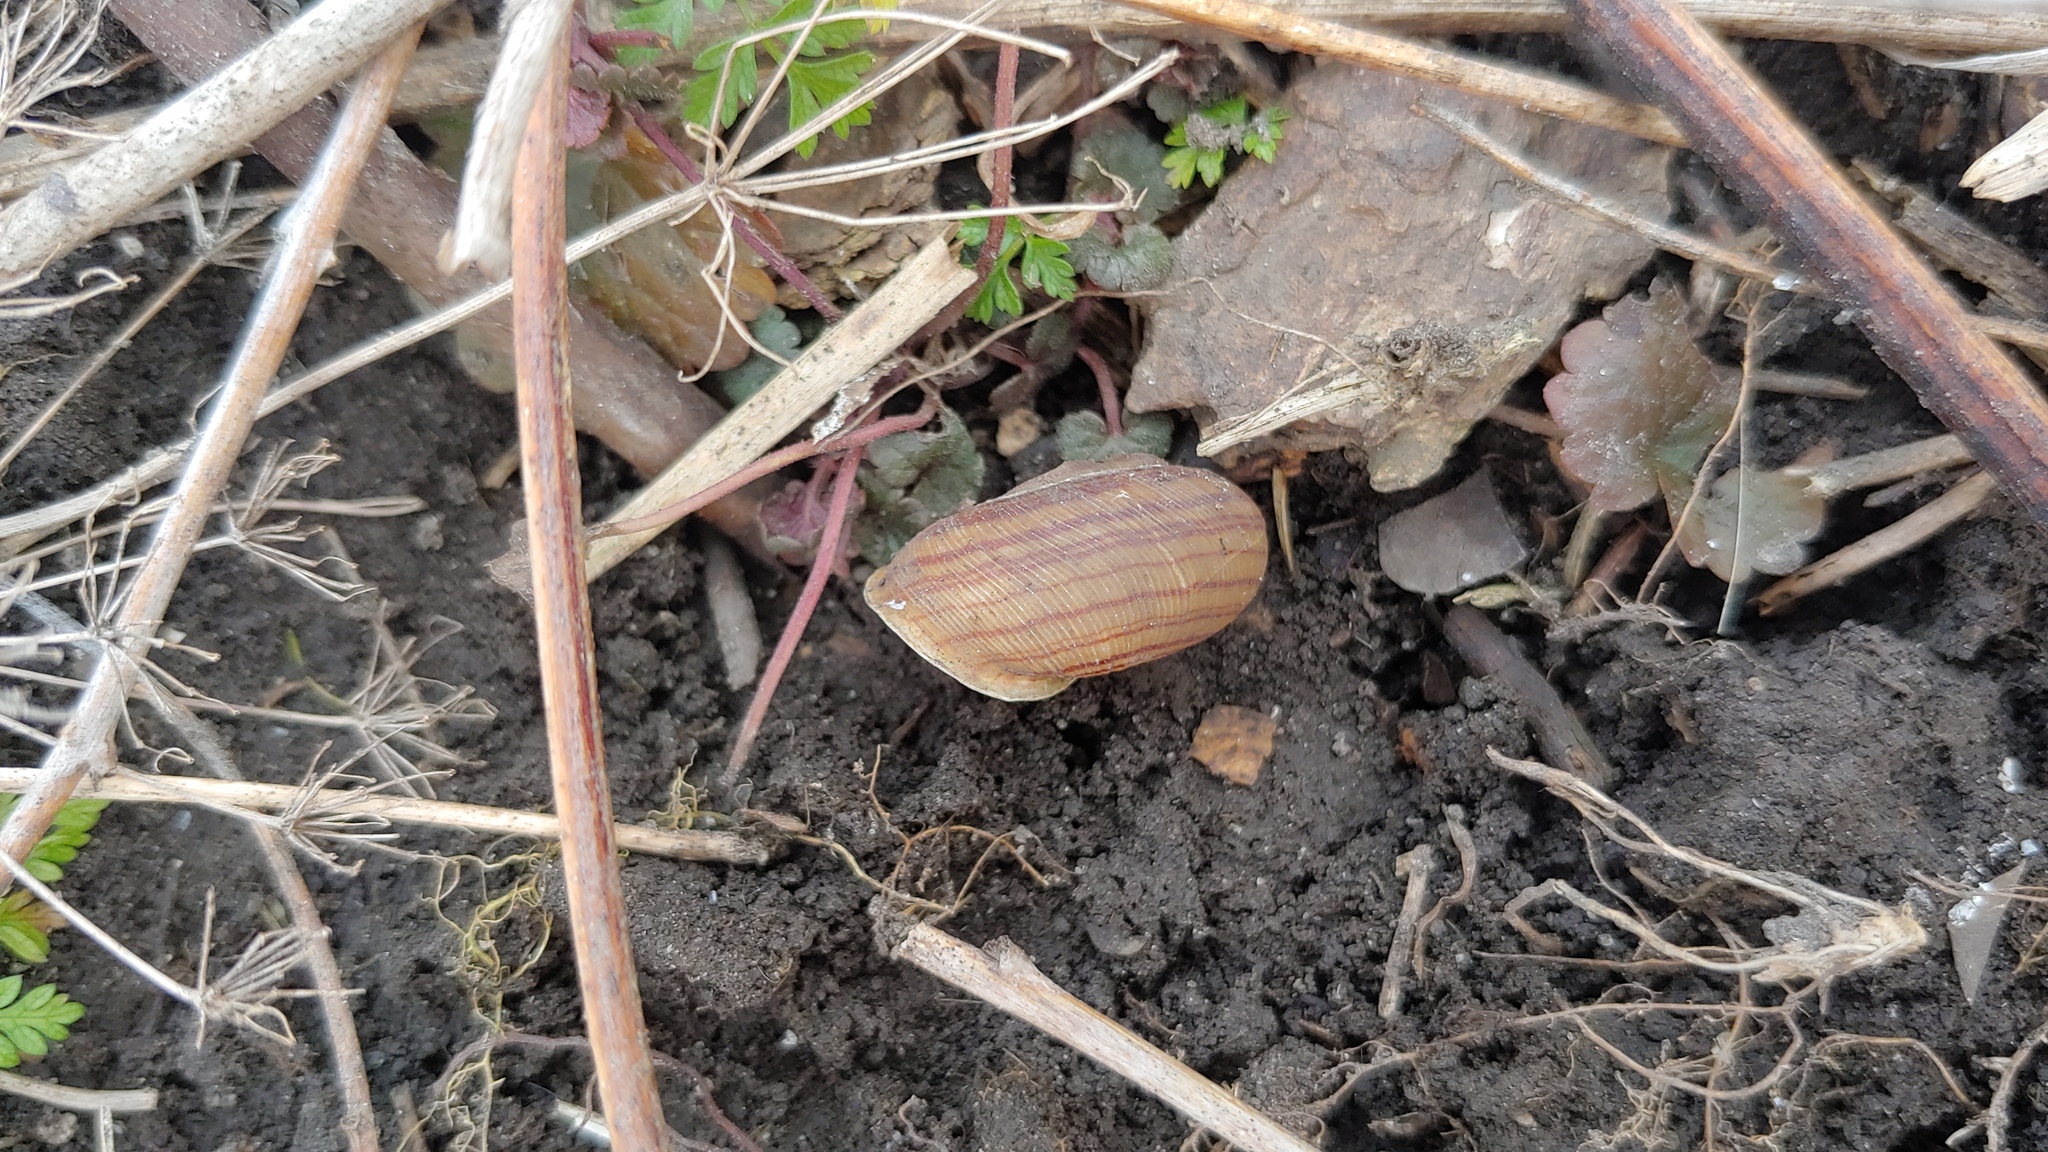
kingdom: Animalia
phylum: Mollusca
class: Gastropoda
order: Stylommatophora
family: Polygyridae
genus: Webbhelix
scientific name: Webbhelix multilineata
